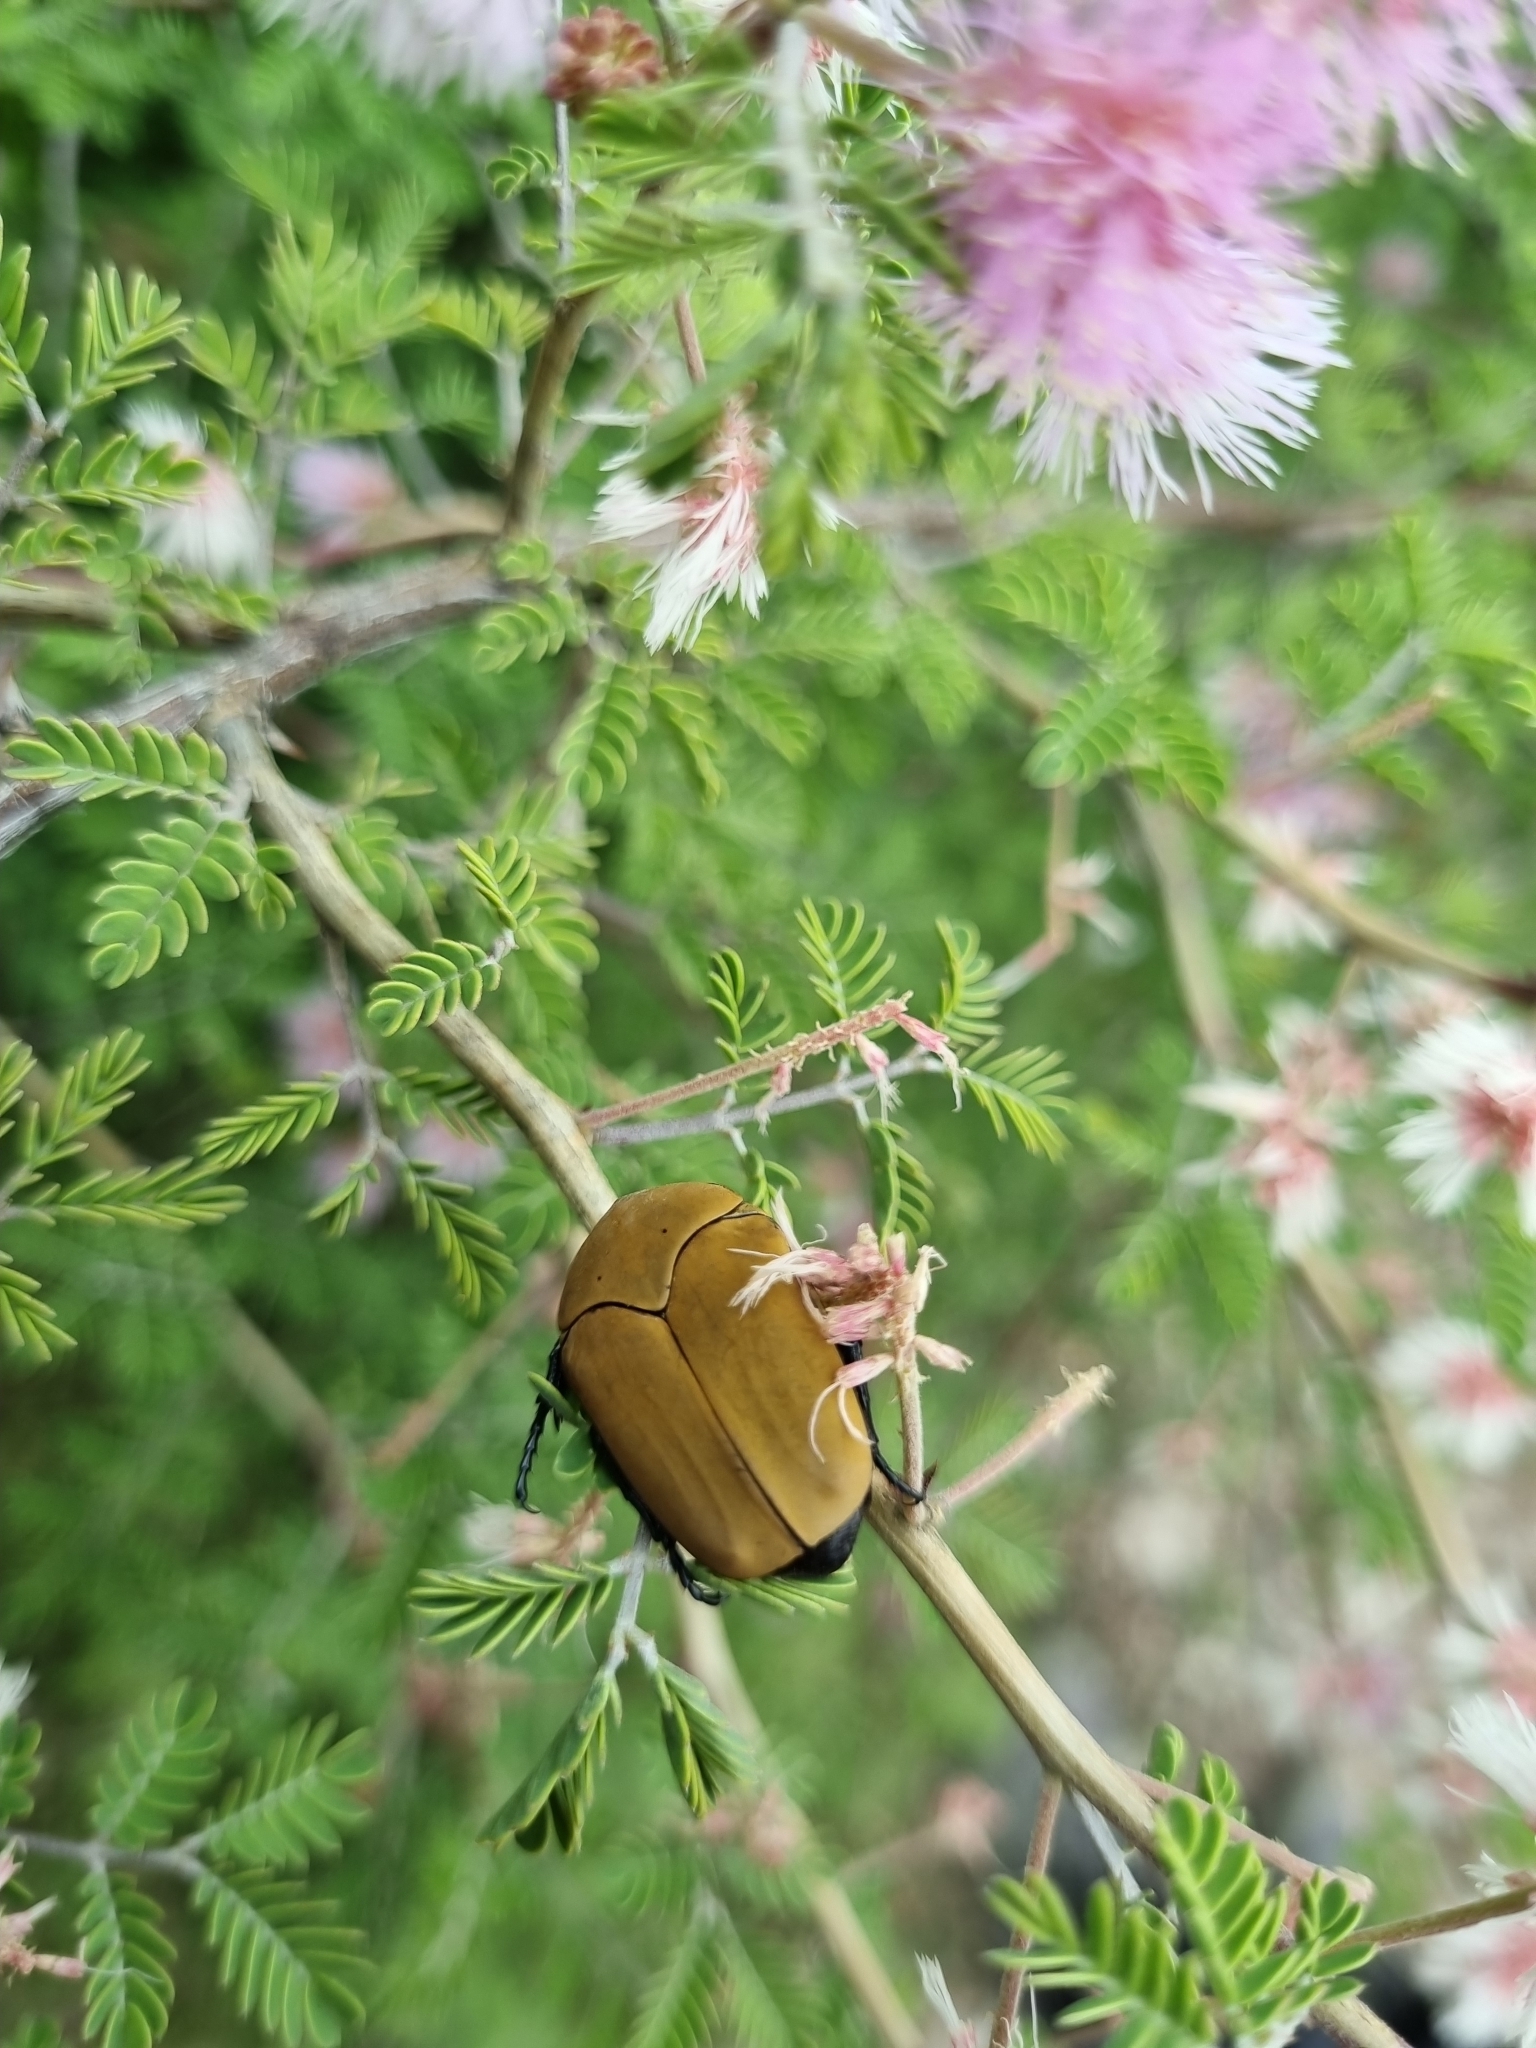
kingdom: Animalia
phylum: Arthropoda
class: Insecta
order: Coleoptera
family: Scarabaeidae
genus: Hologymnetis
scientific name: Hologymnetis cinerea
